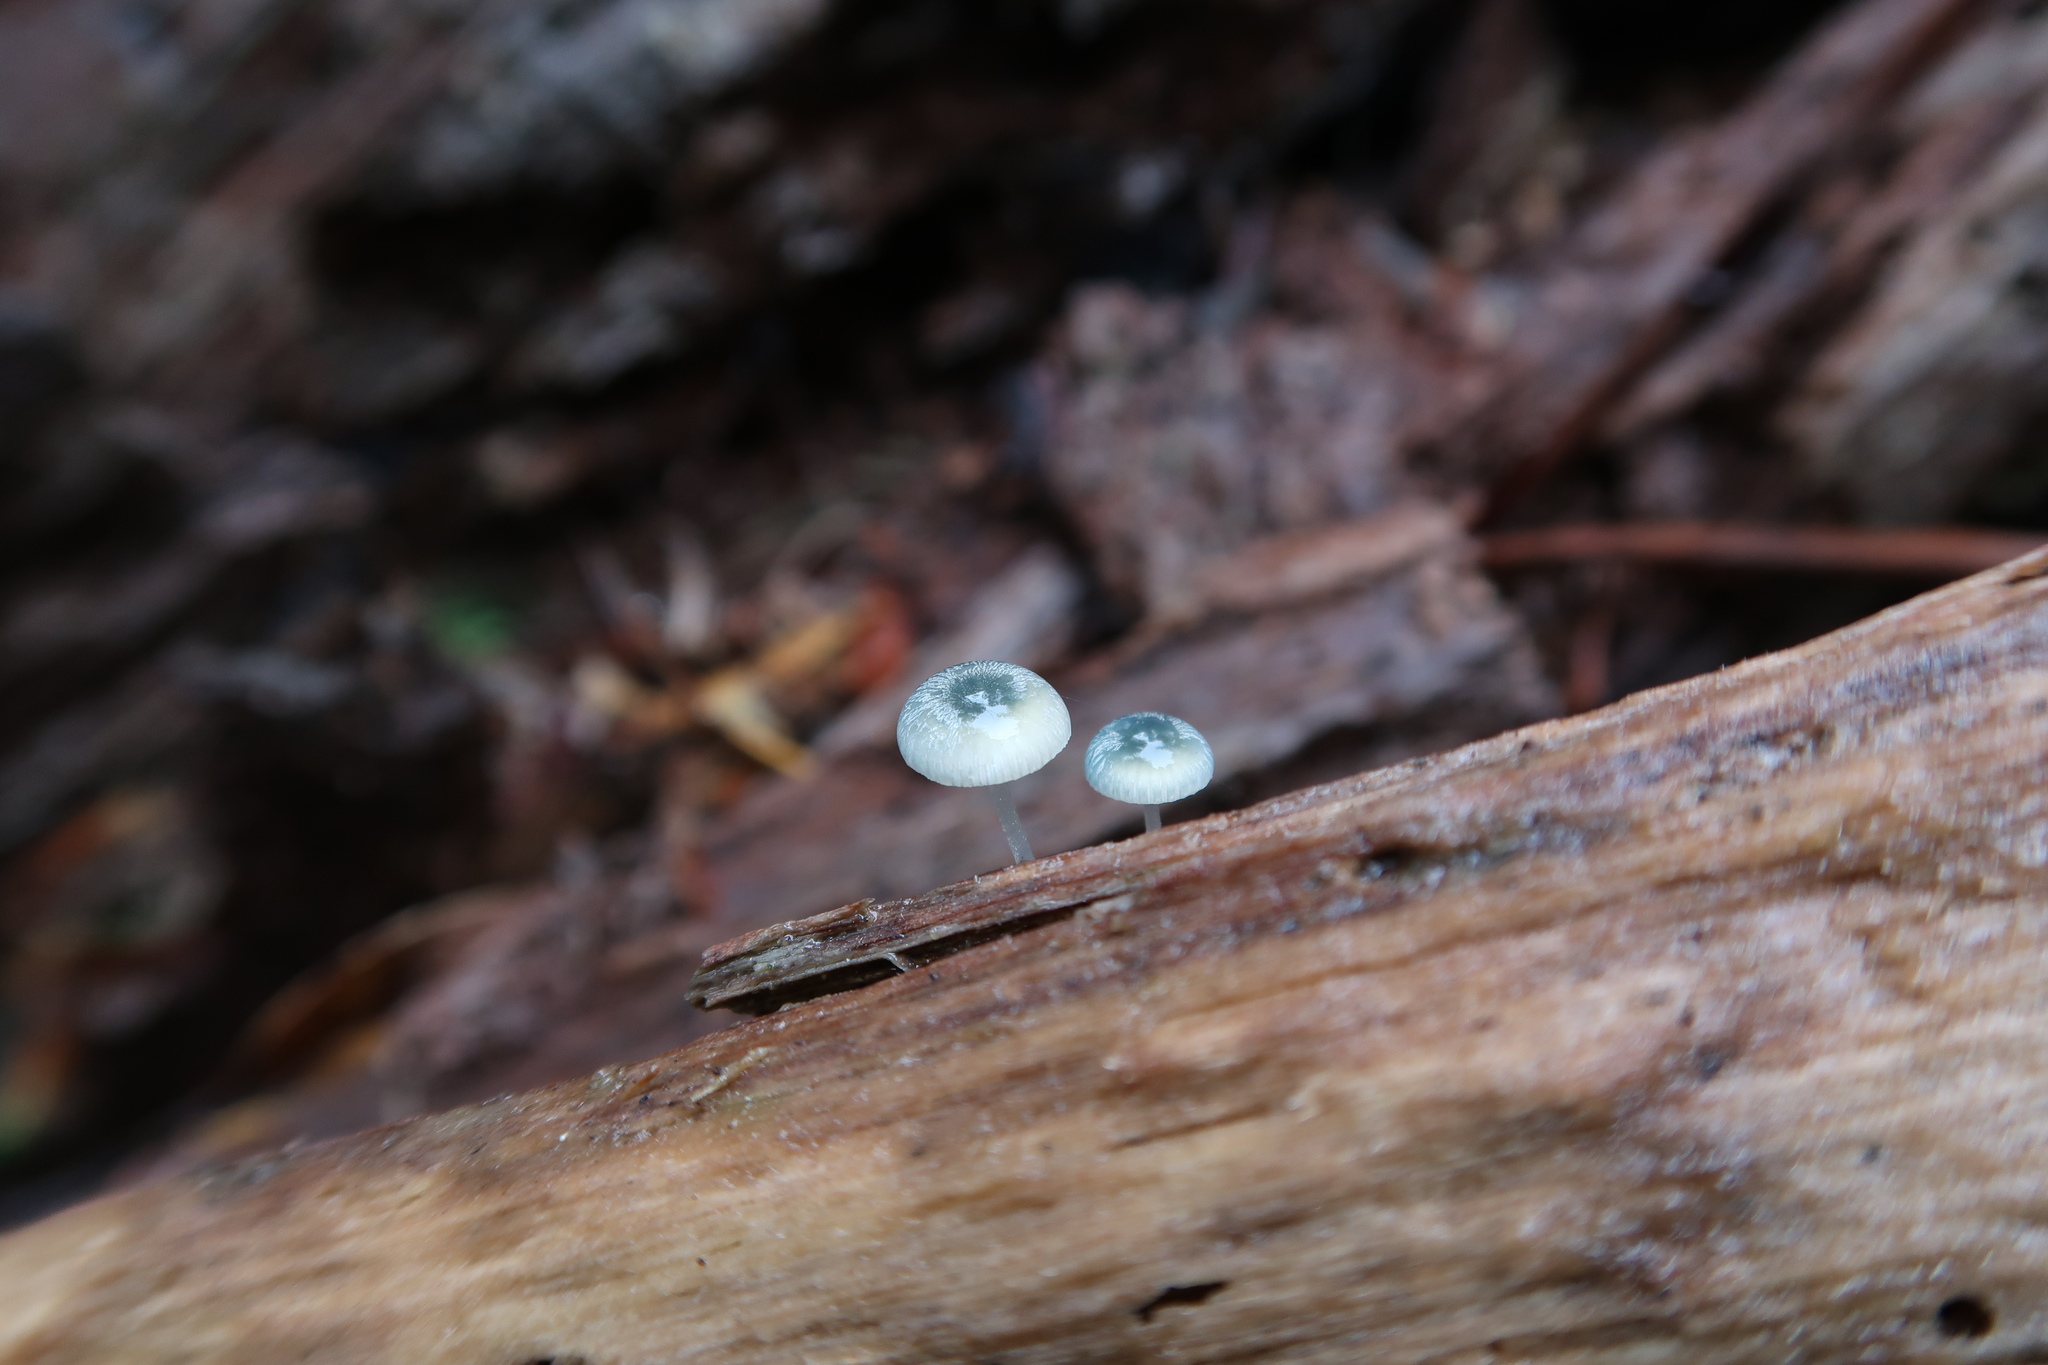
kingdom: Fungi
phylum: Basidiomycota
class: Agaricomycetes
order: Agaricales
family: Mycenaceae
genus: Mycena
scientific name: Mycena interrupta
